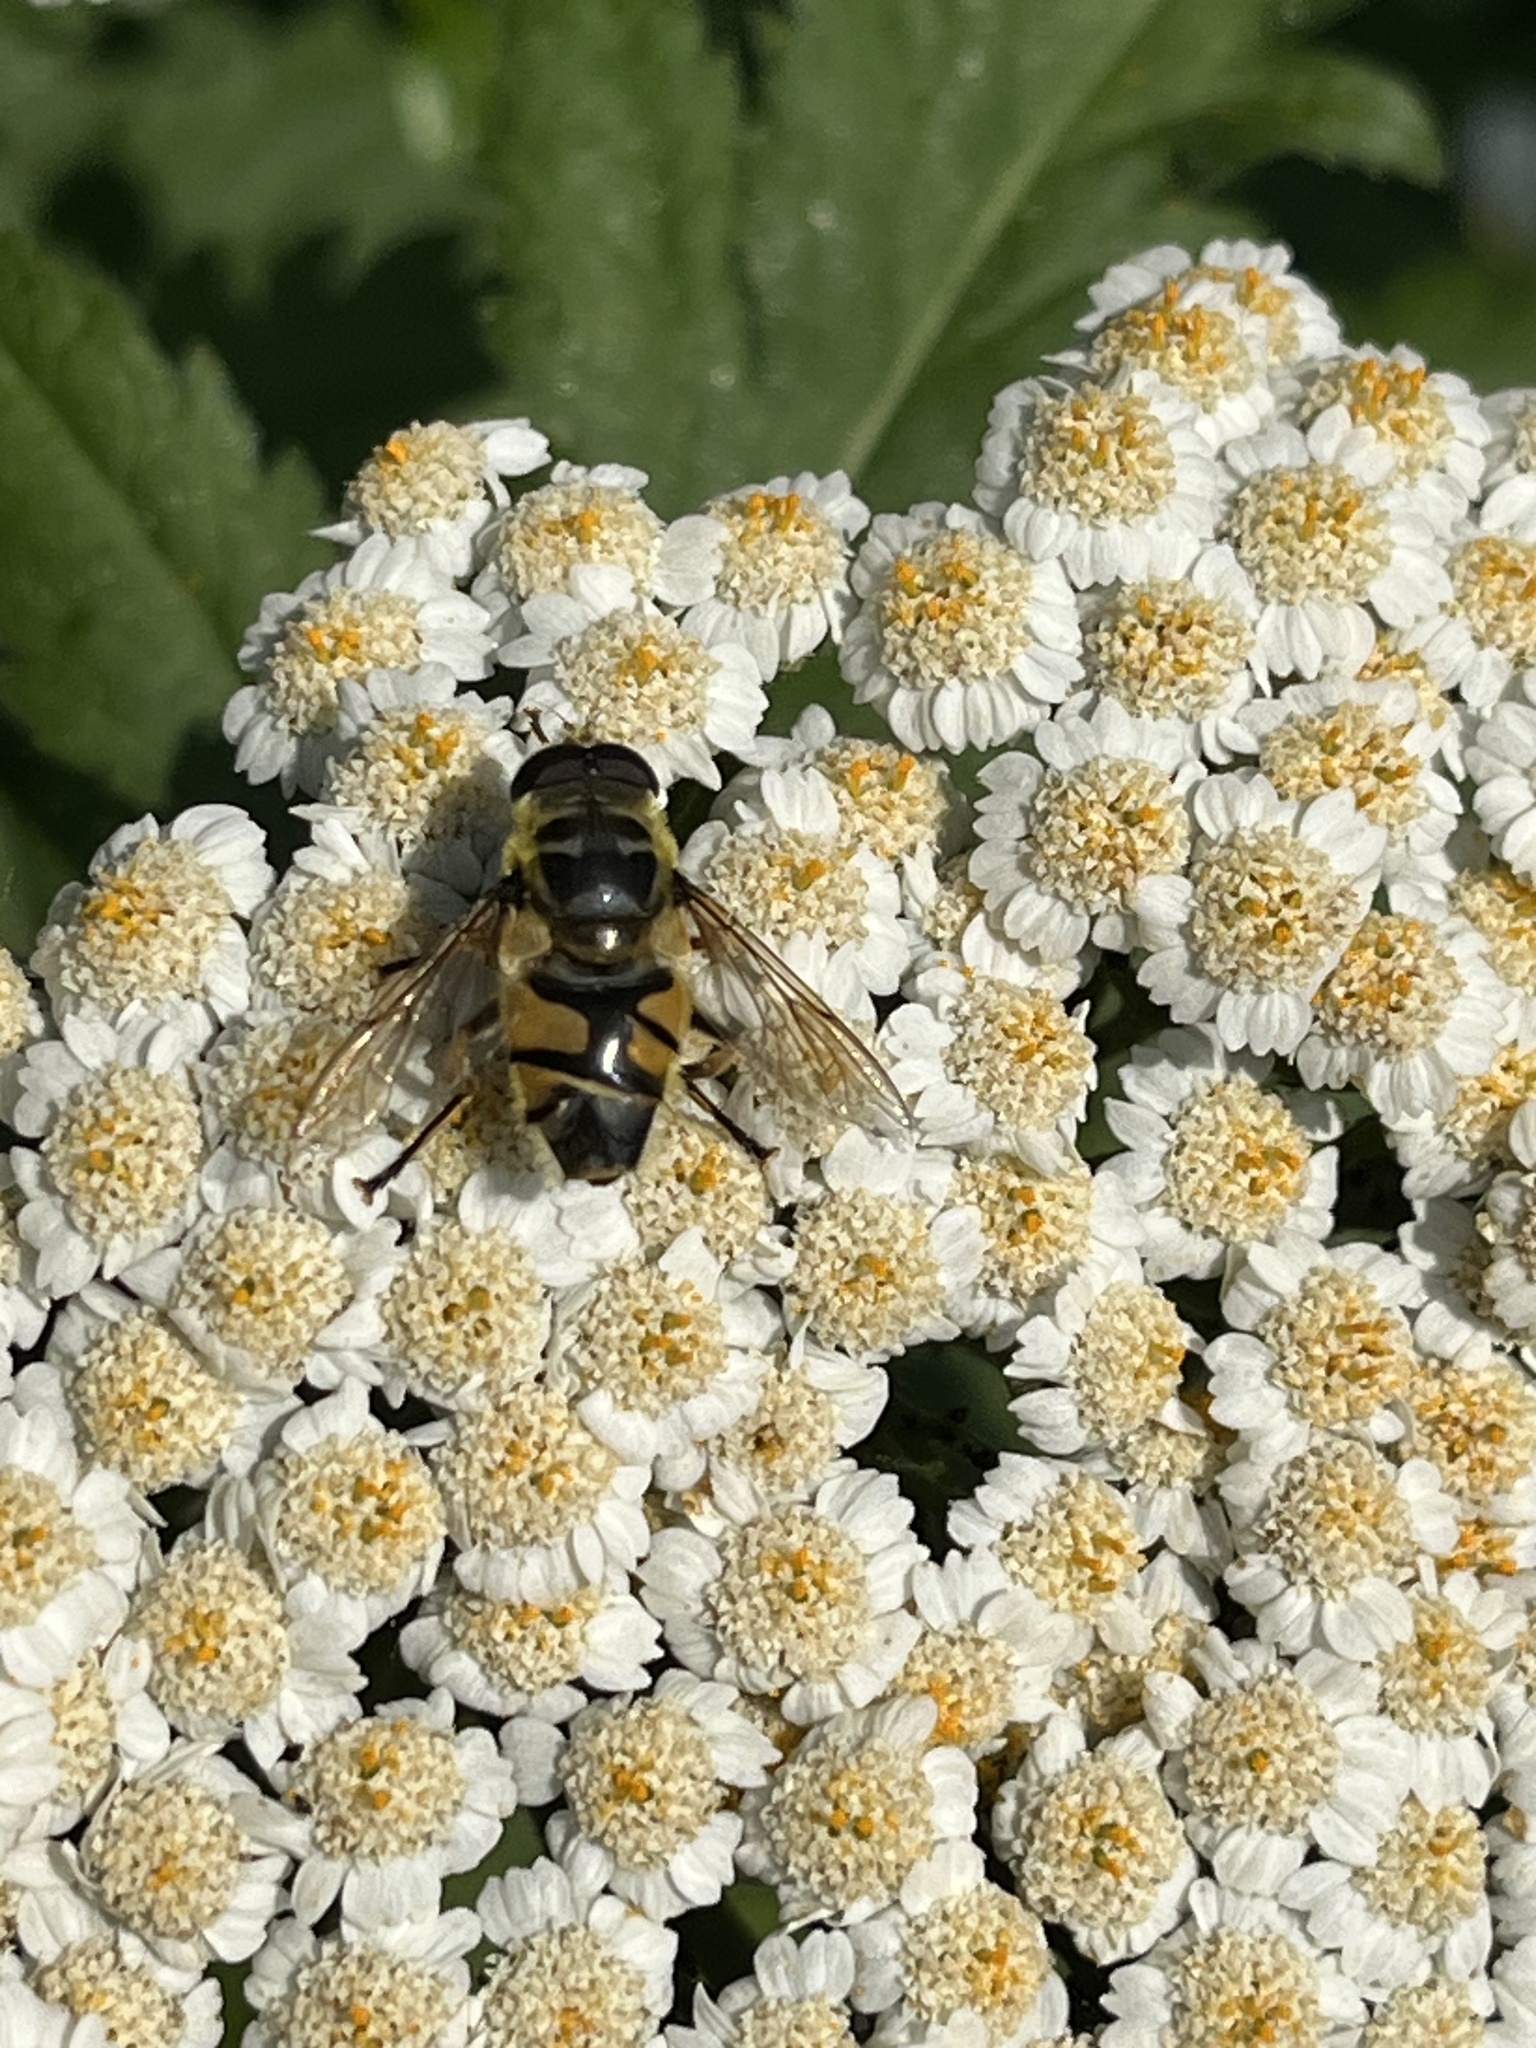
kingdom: Animalia
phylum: Arthropoda
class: Insecta
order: Diptera
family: Syrphidae
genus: Myathropa
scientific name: Myathropa florea
